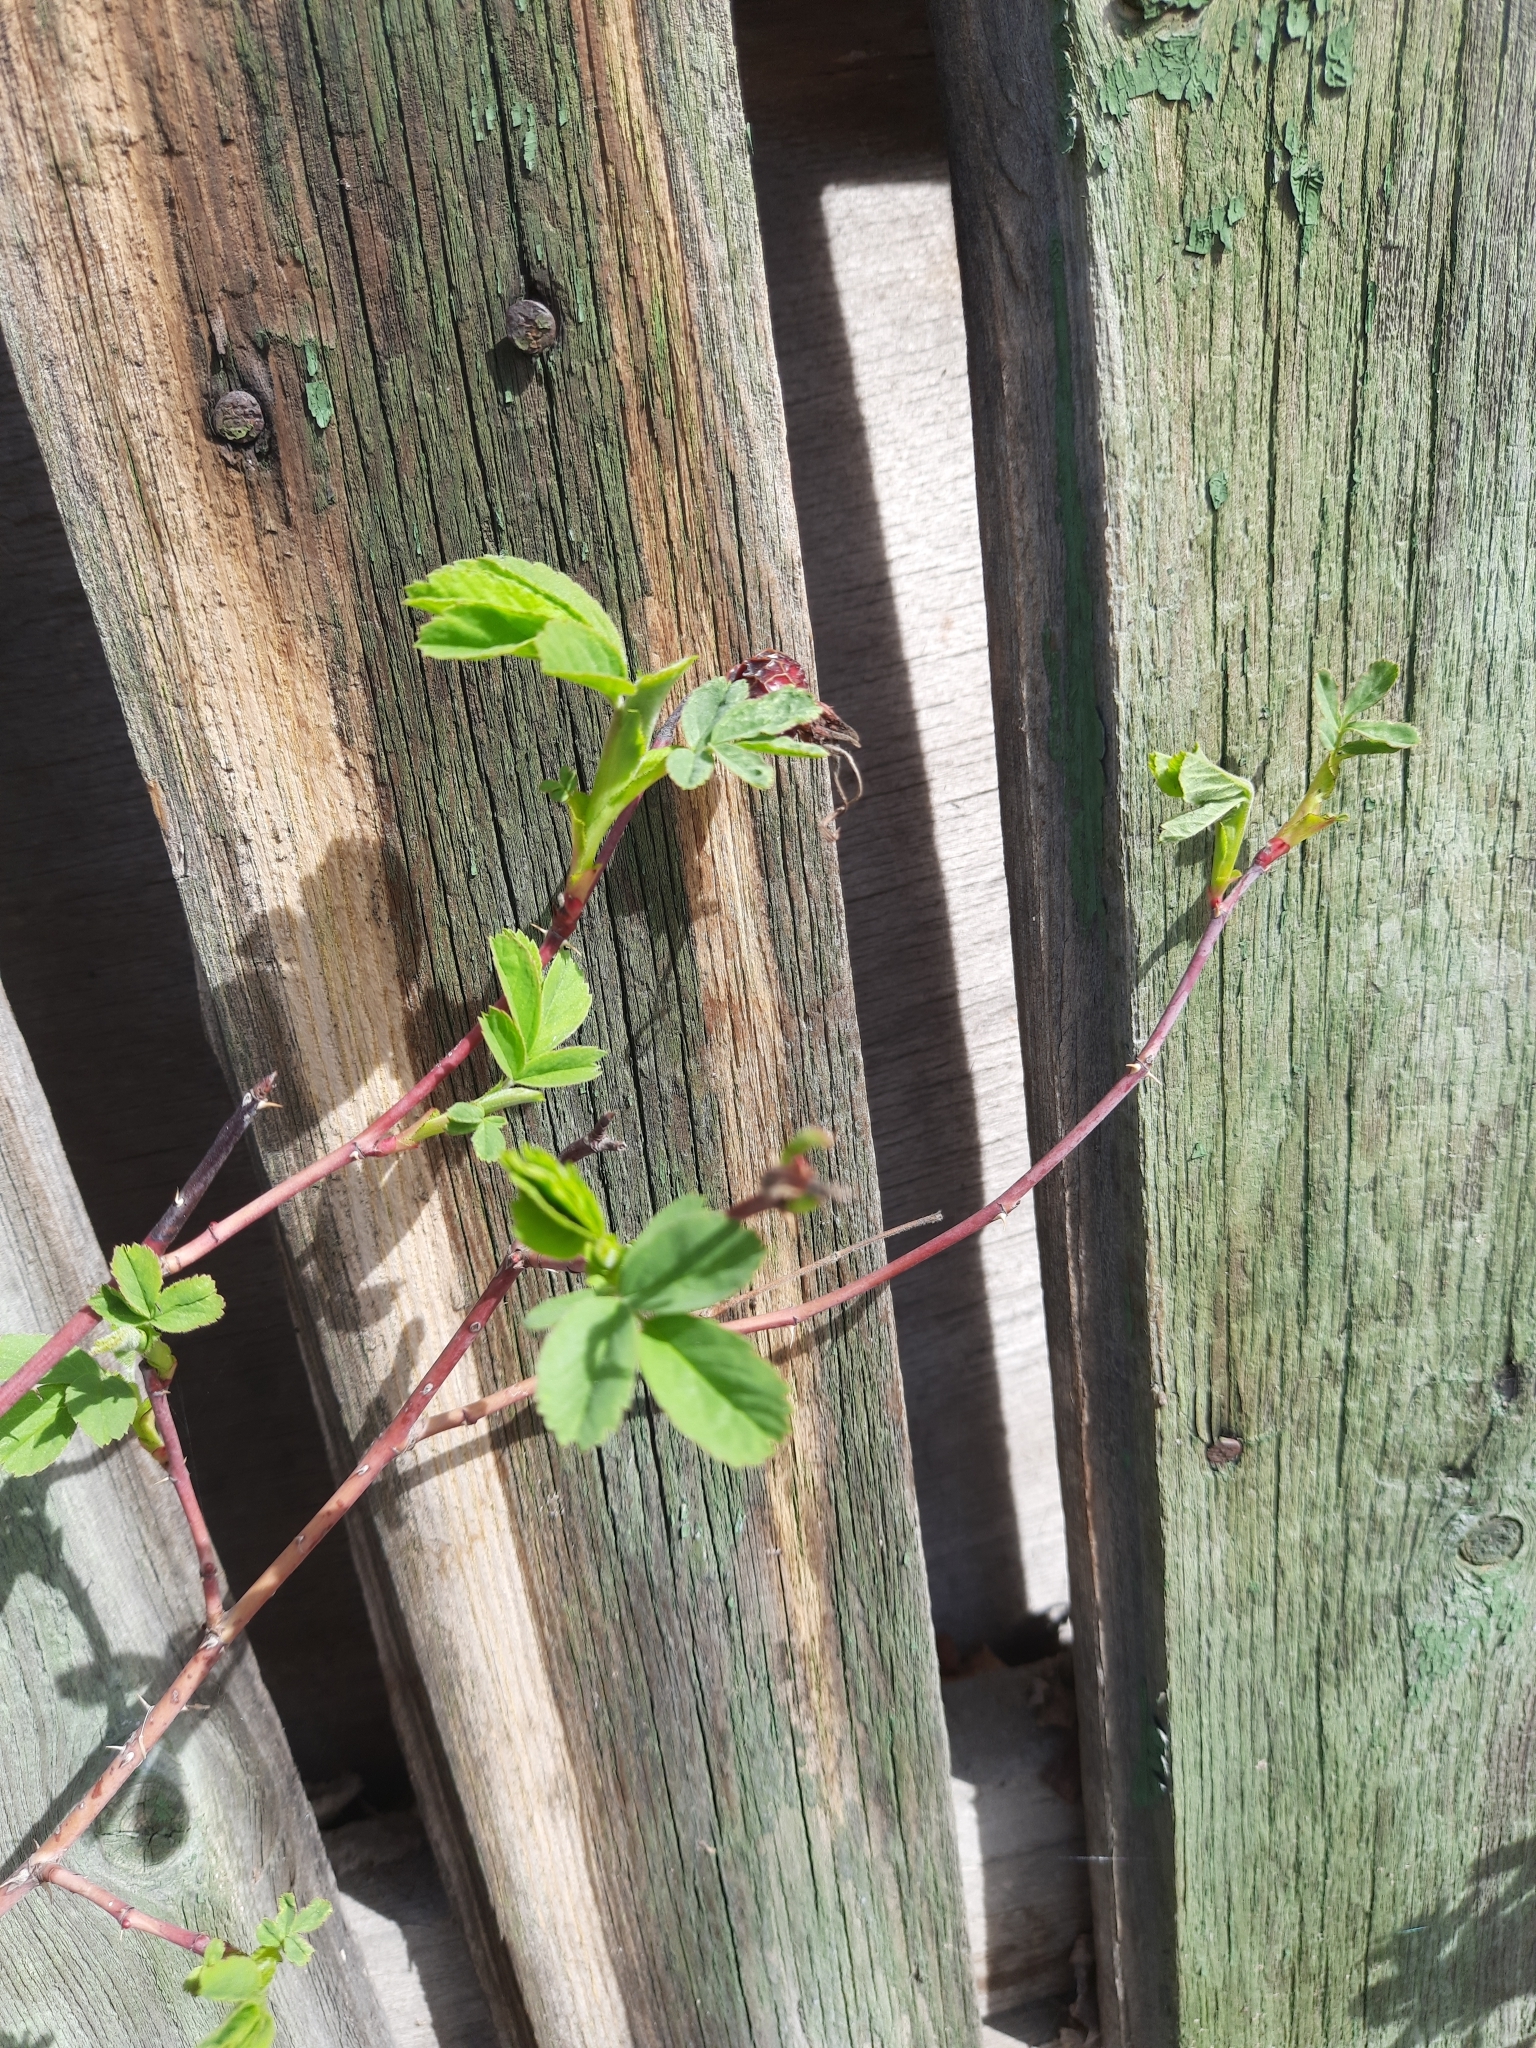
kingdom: Plantae
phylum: Tracheophyta
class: Magnoliopsida
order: Rosales
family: Rosaceae
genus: Rosa
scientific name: Rosa majalis
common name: Cinnamon rose
